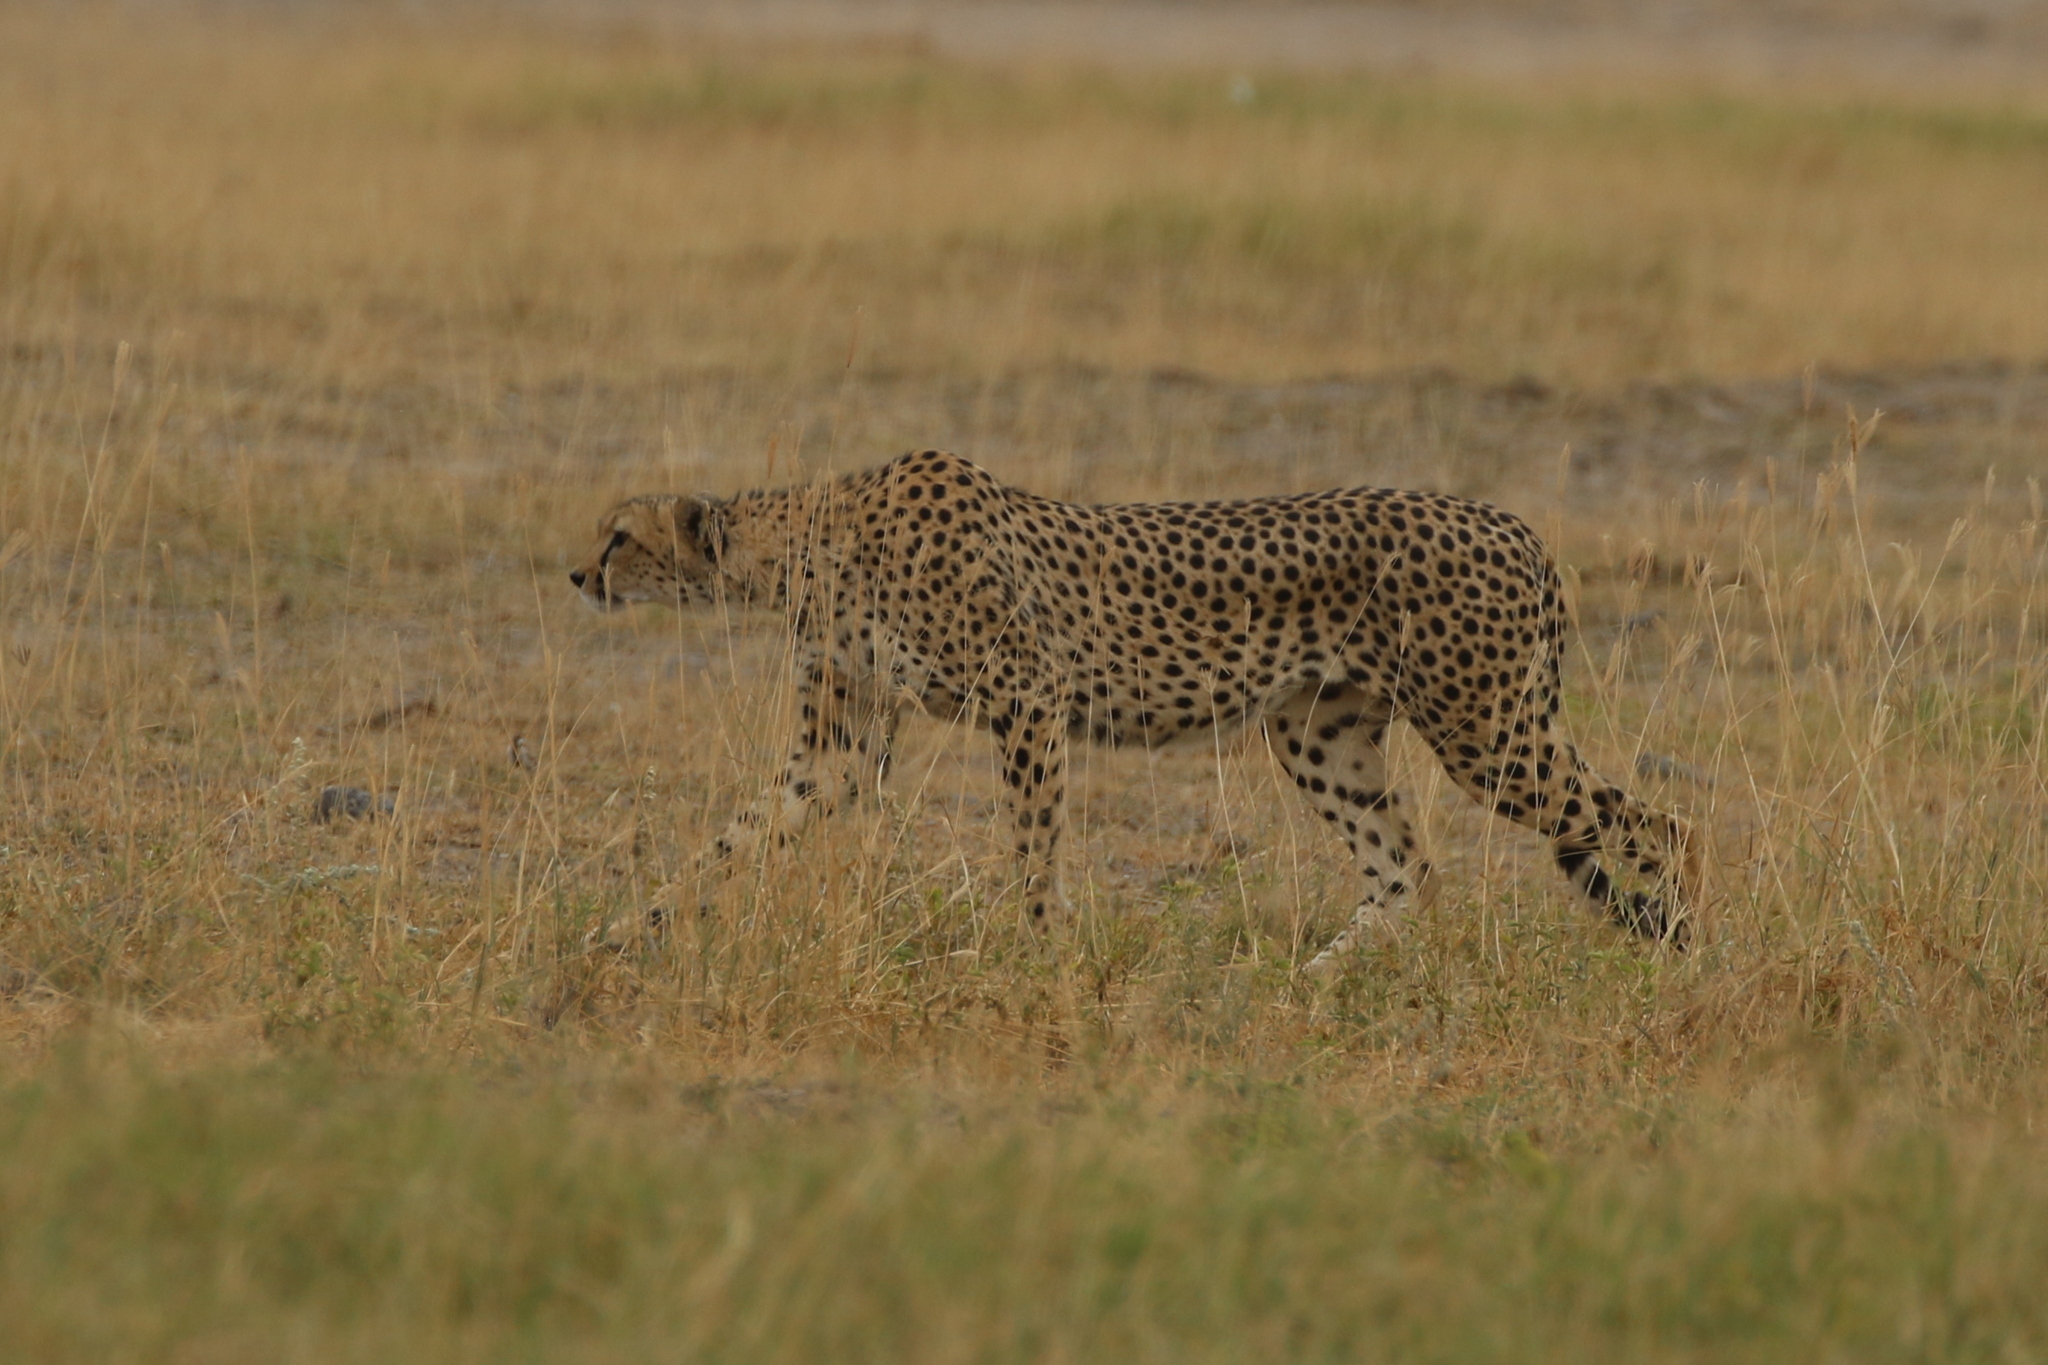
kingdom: Animalia
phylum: Chordata
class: Mammalia
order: Carnivora
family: Felidae
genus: Acinonyx
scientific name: Acinonyx jubatus
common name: Cheetah
